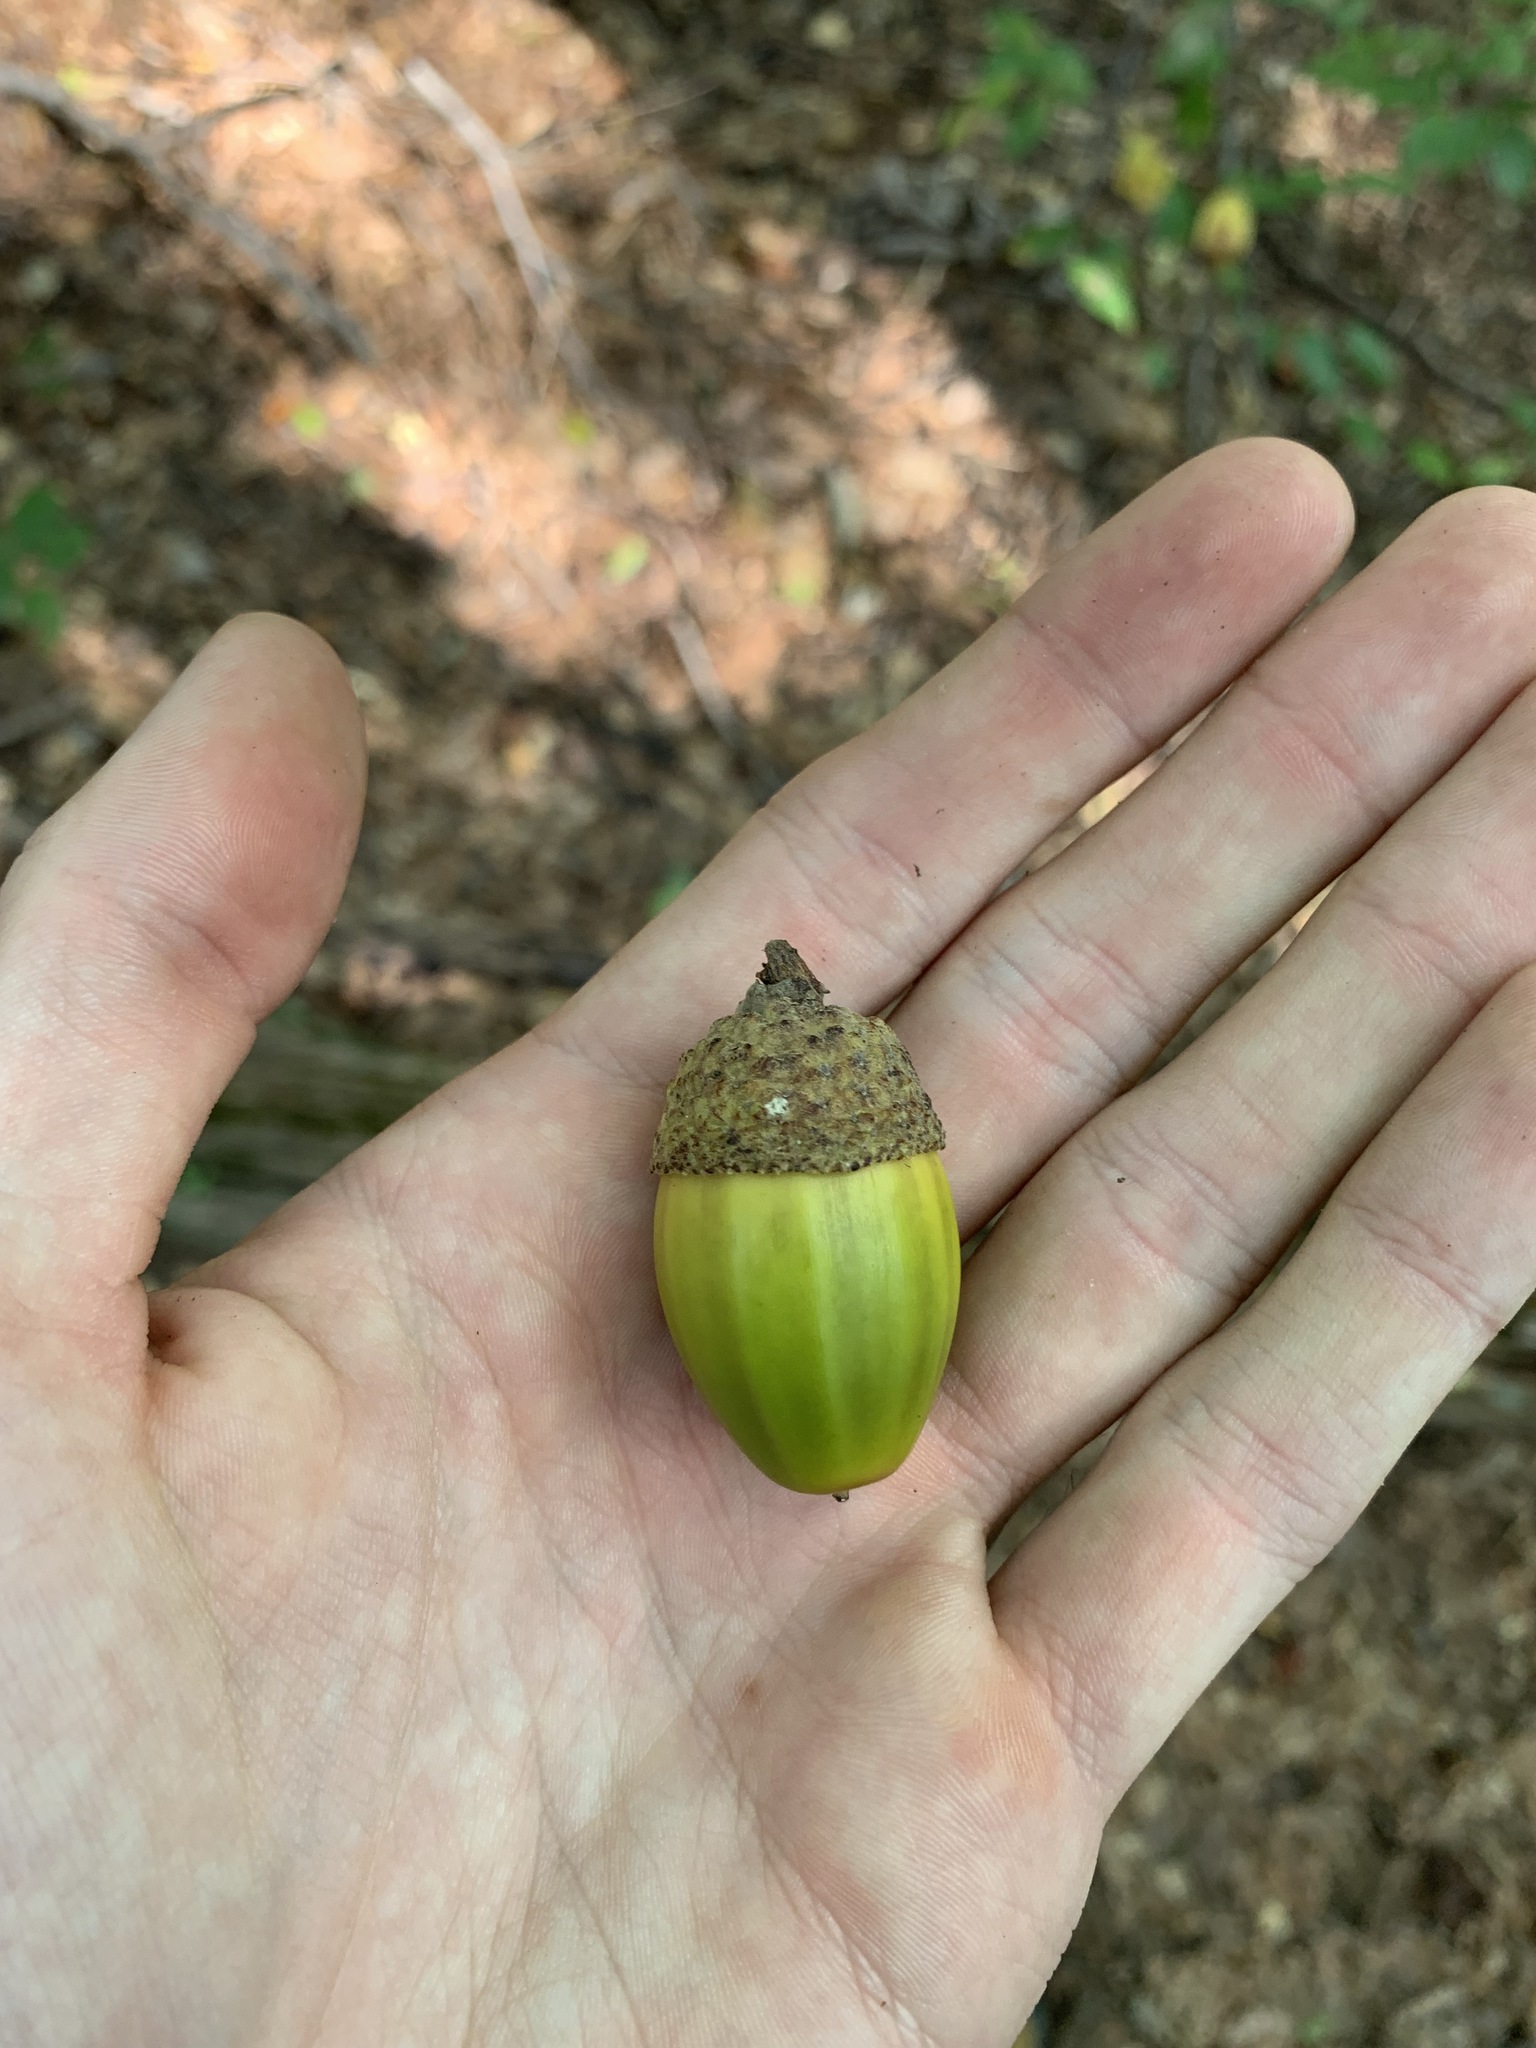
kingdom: Plantae
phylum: Tracheophyta
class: Magnoliopsida
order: Fagales
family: Fagaceae
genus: Quercus
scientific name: Quercus montana
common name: Chestnut oak
